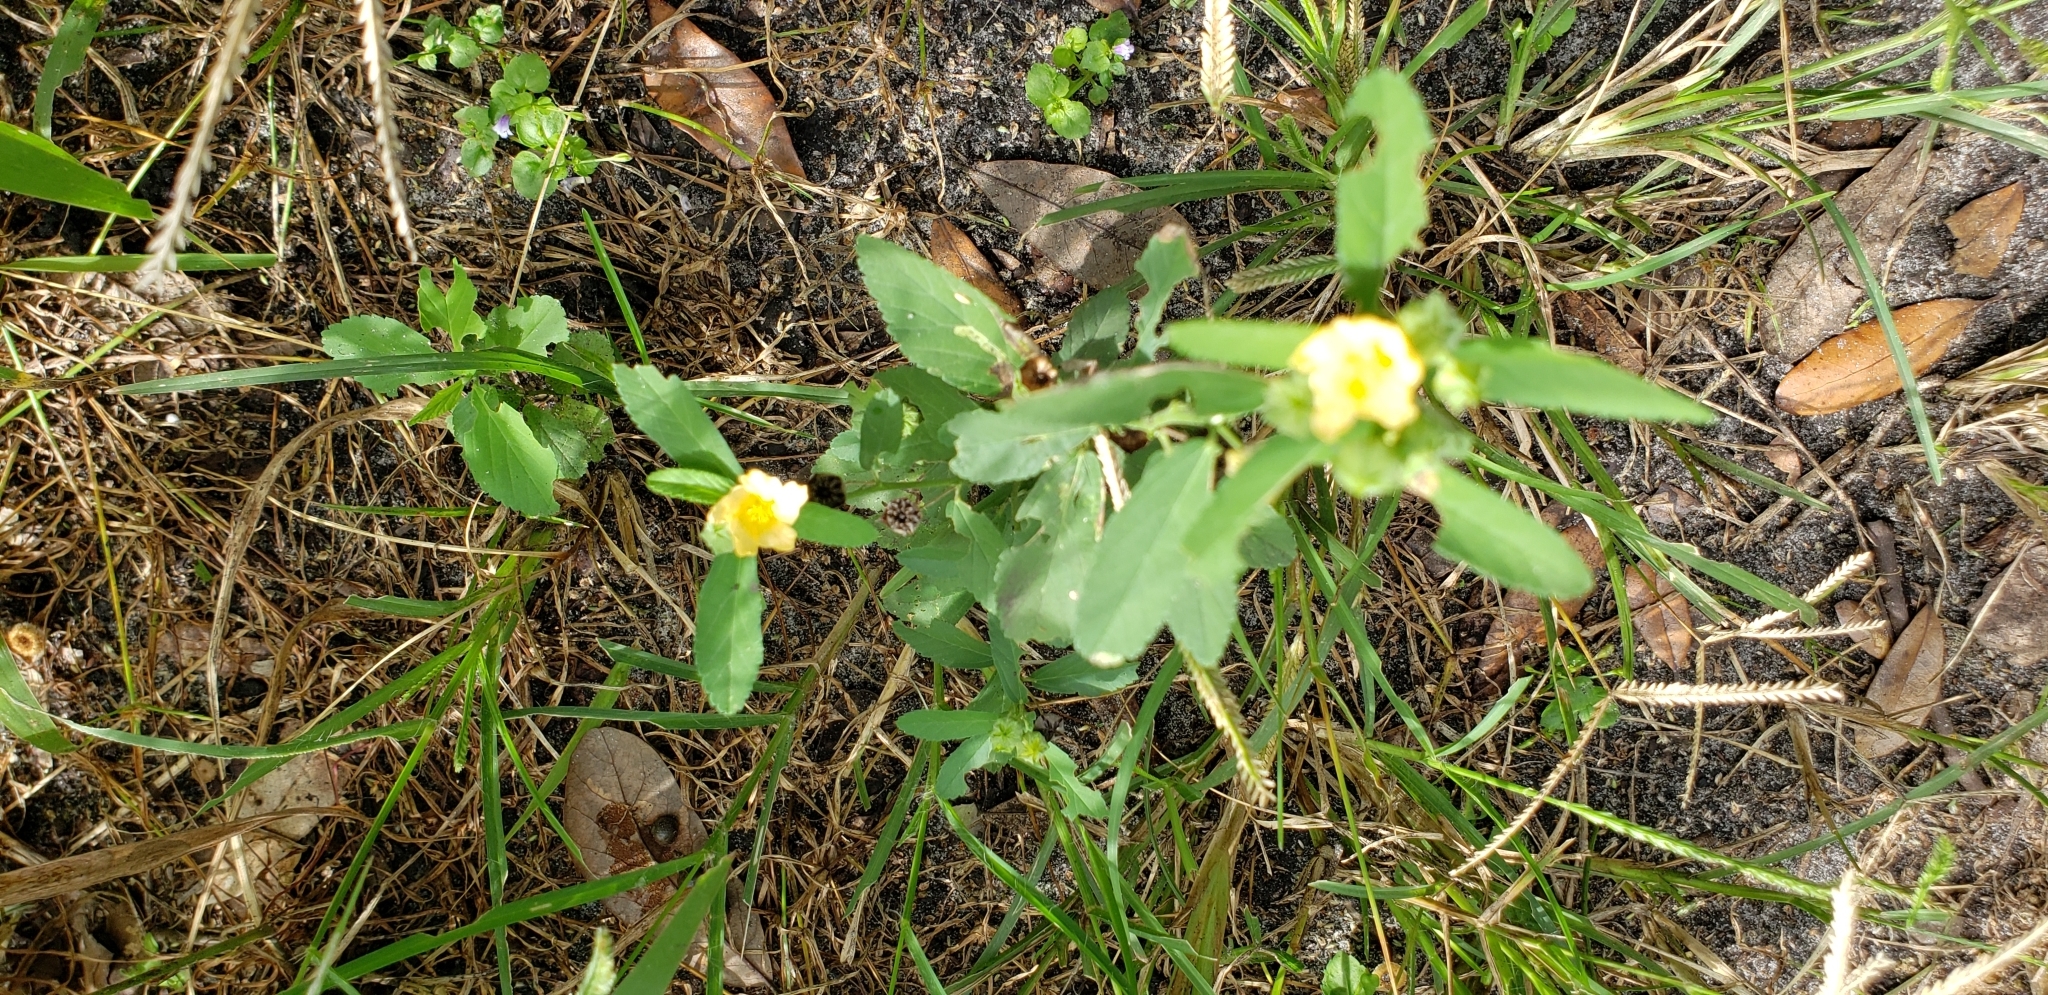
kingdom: Plantae
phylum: Tracheophyta
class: Magnoliopsida
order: Malvales
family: Malvaceae
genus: Sida
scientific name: Sida rhombifolia
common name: Queensland-hemp
